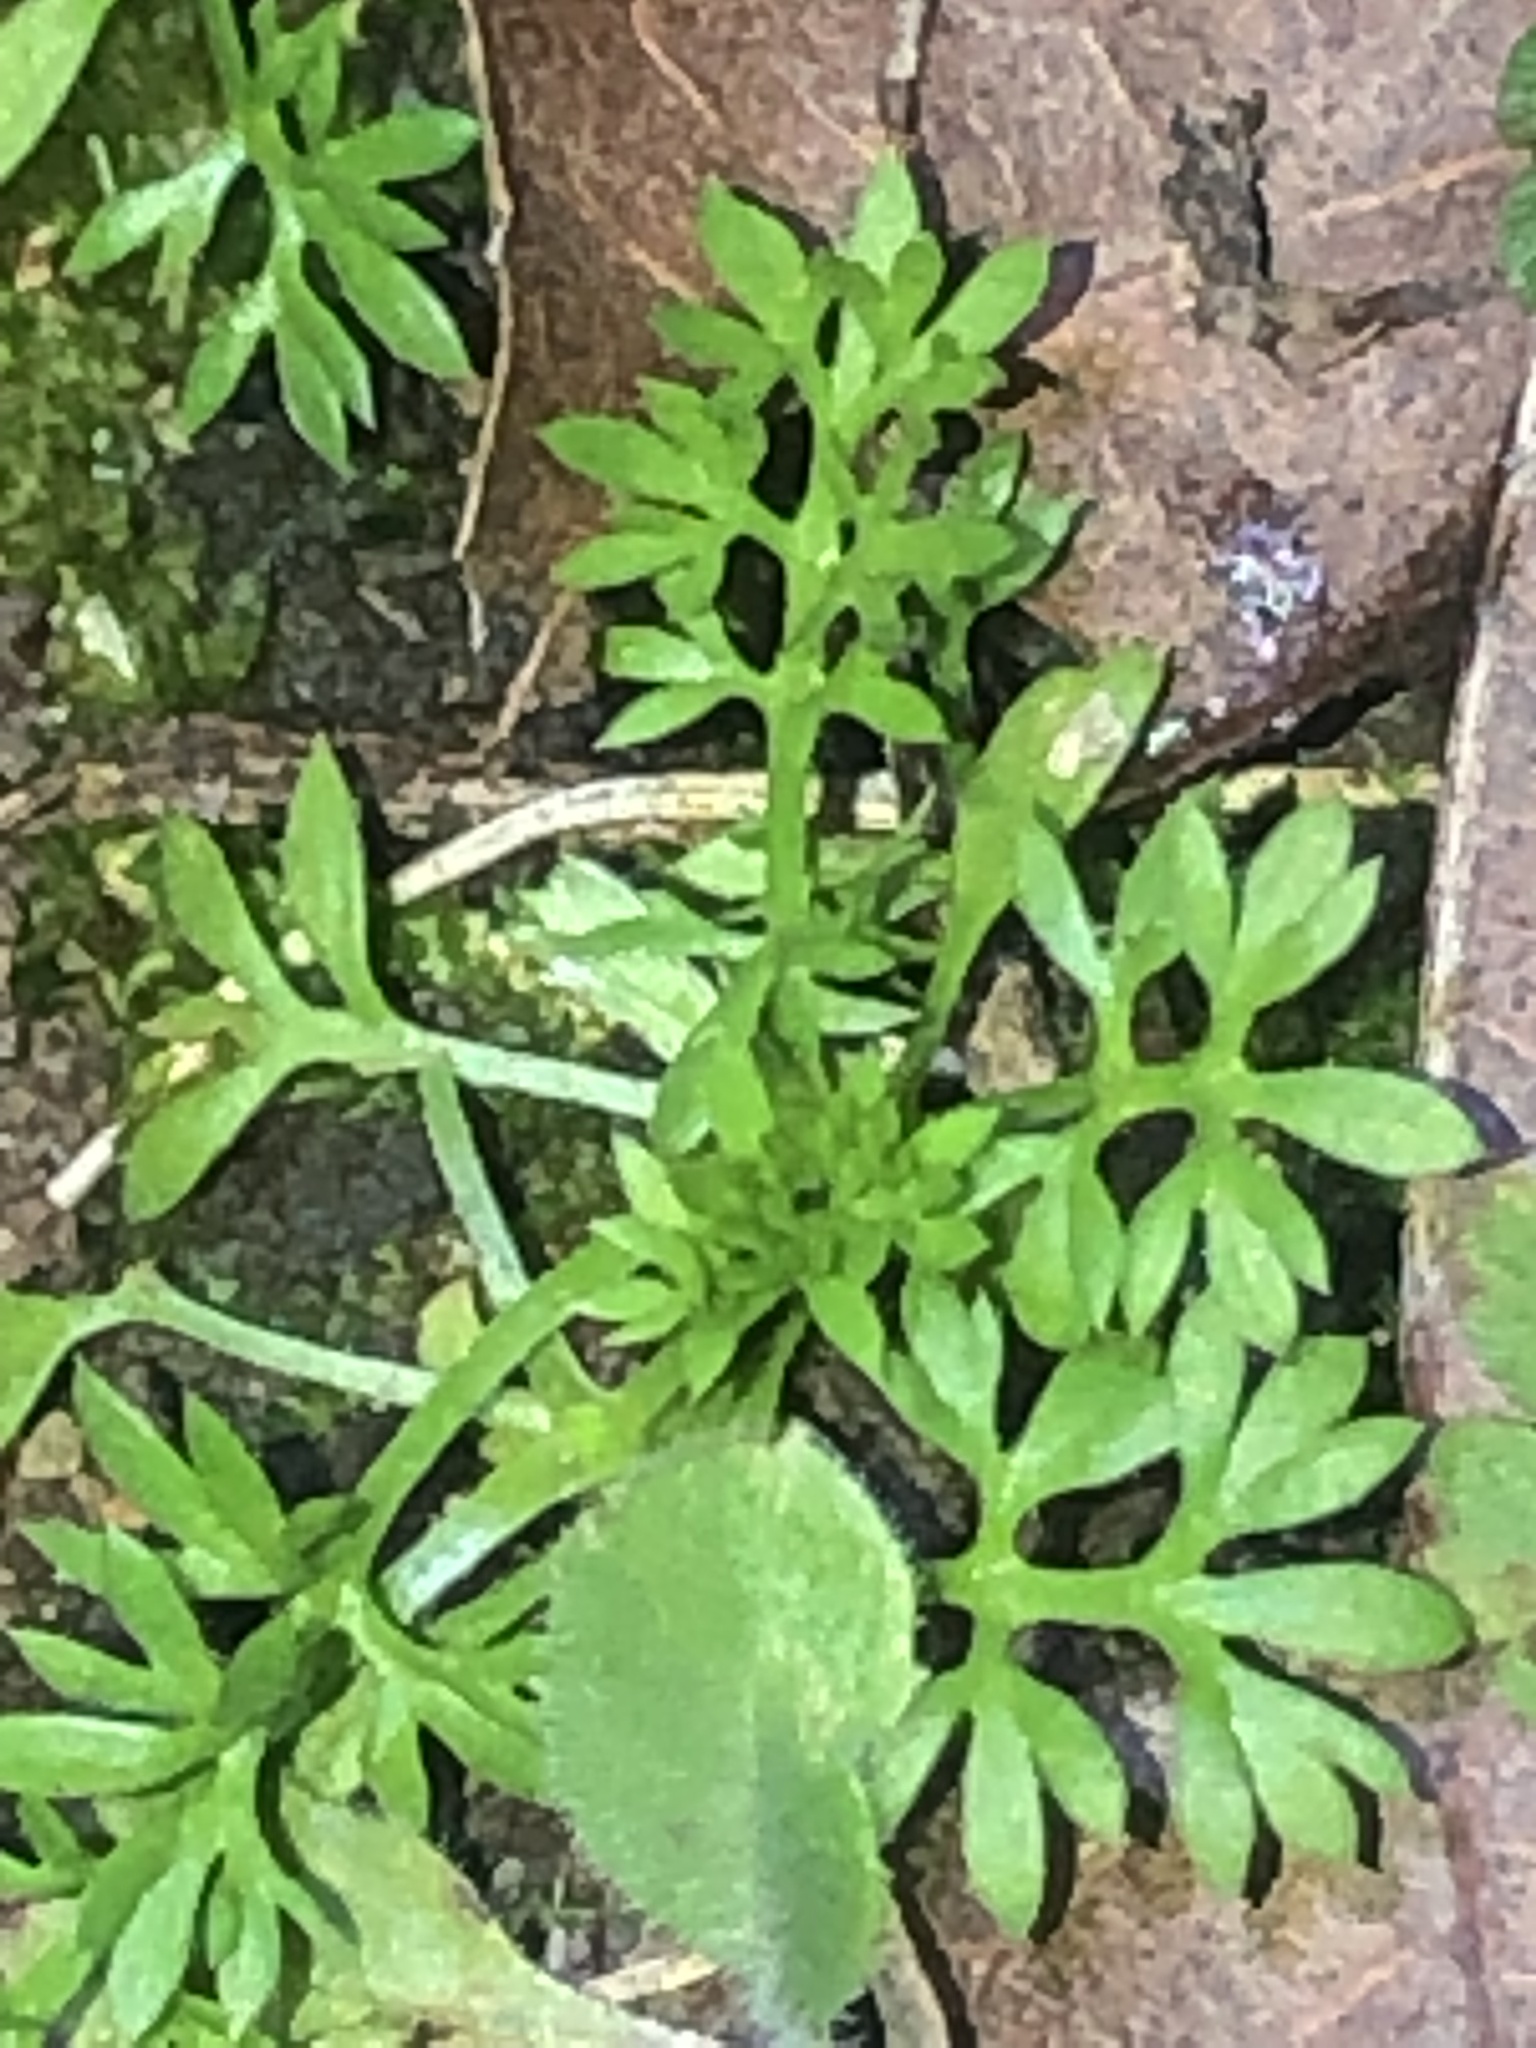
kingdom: Plantae
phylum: Tracheophyta
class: Magnoliopsida
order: Asterales
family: Asteraceae
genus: Soliva
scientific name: Soliva sessilis
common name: Field burrweed
